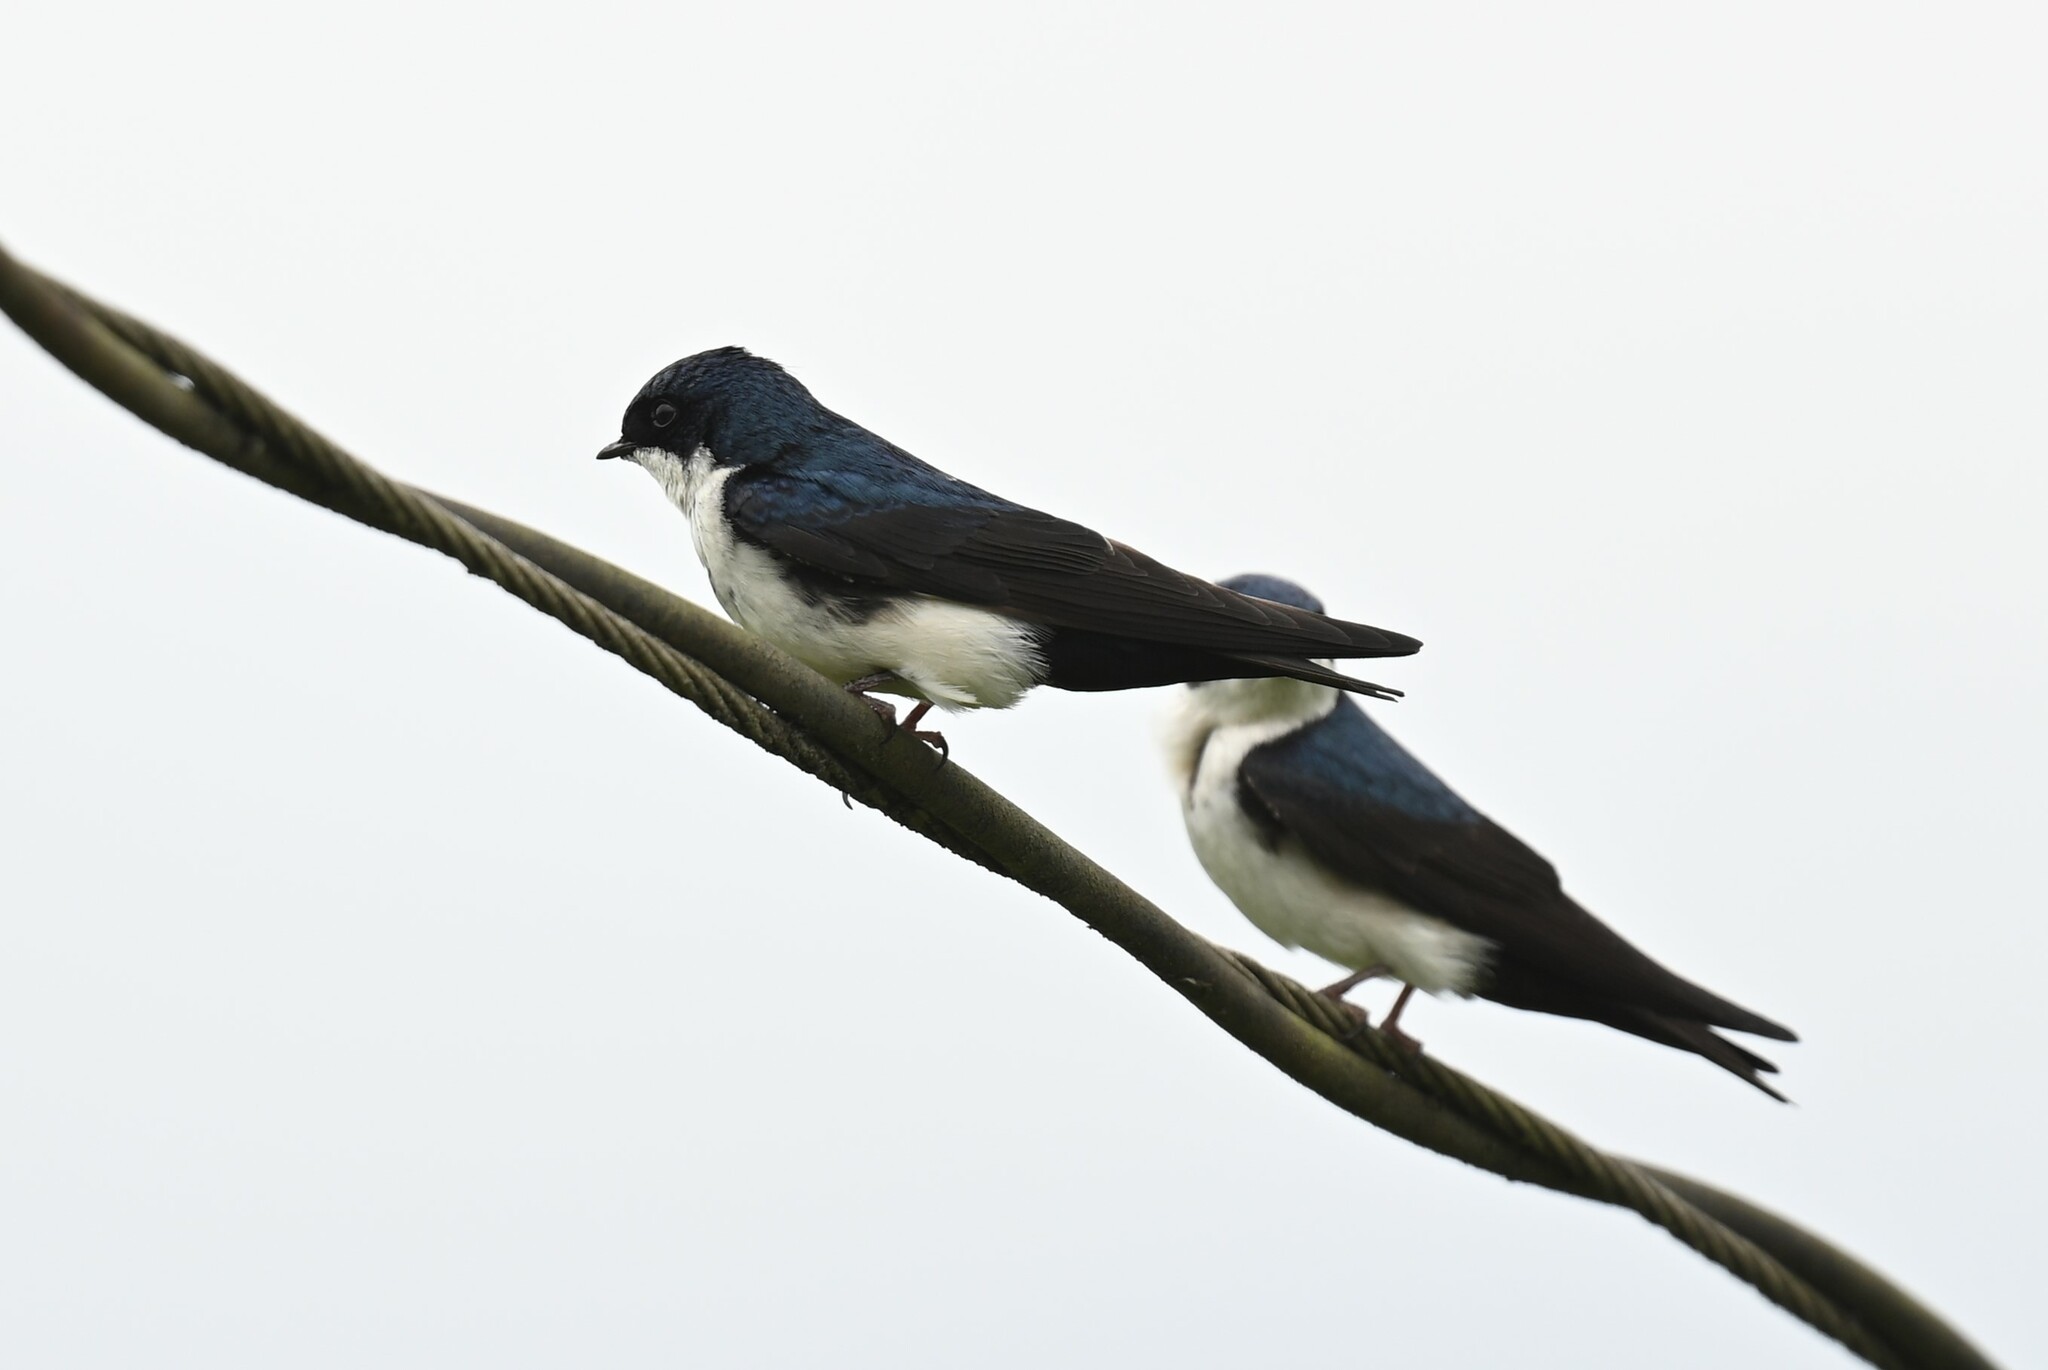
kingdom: Animalia
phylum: Chordata
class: Aves
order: Passeriformes
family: Hirundinidae
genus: Notiochelidon
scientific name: Notiochelidon cyanoleuca
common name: Blue-and-white swallow
